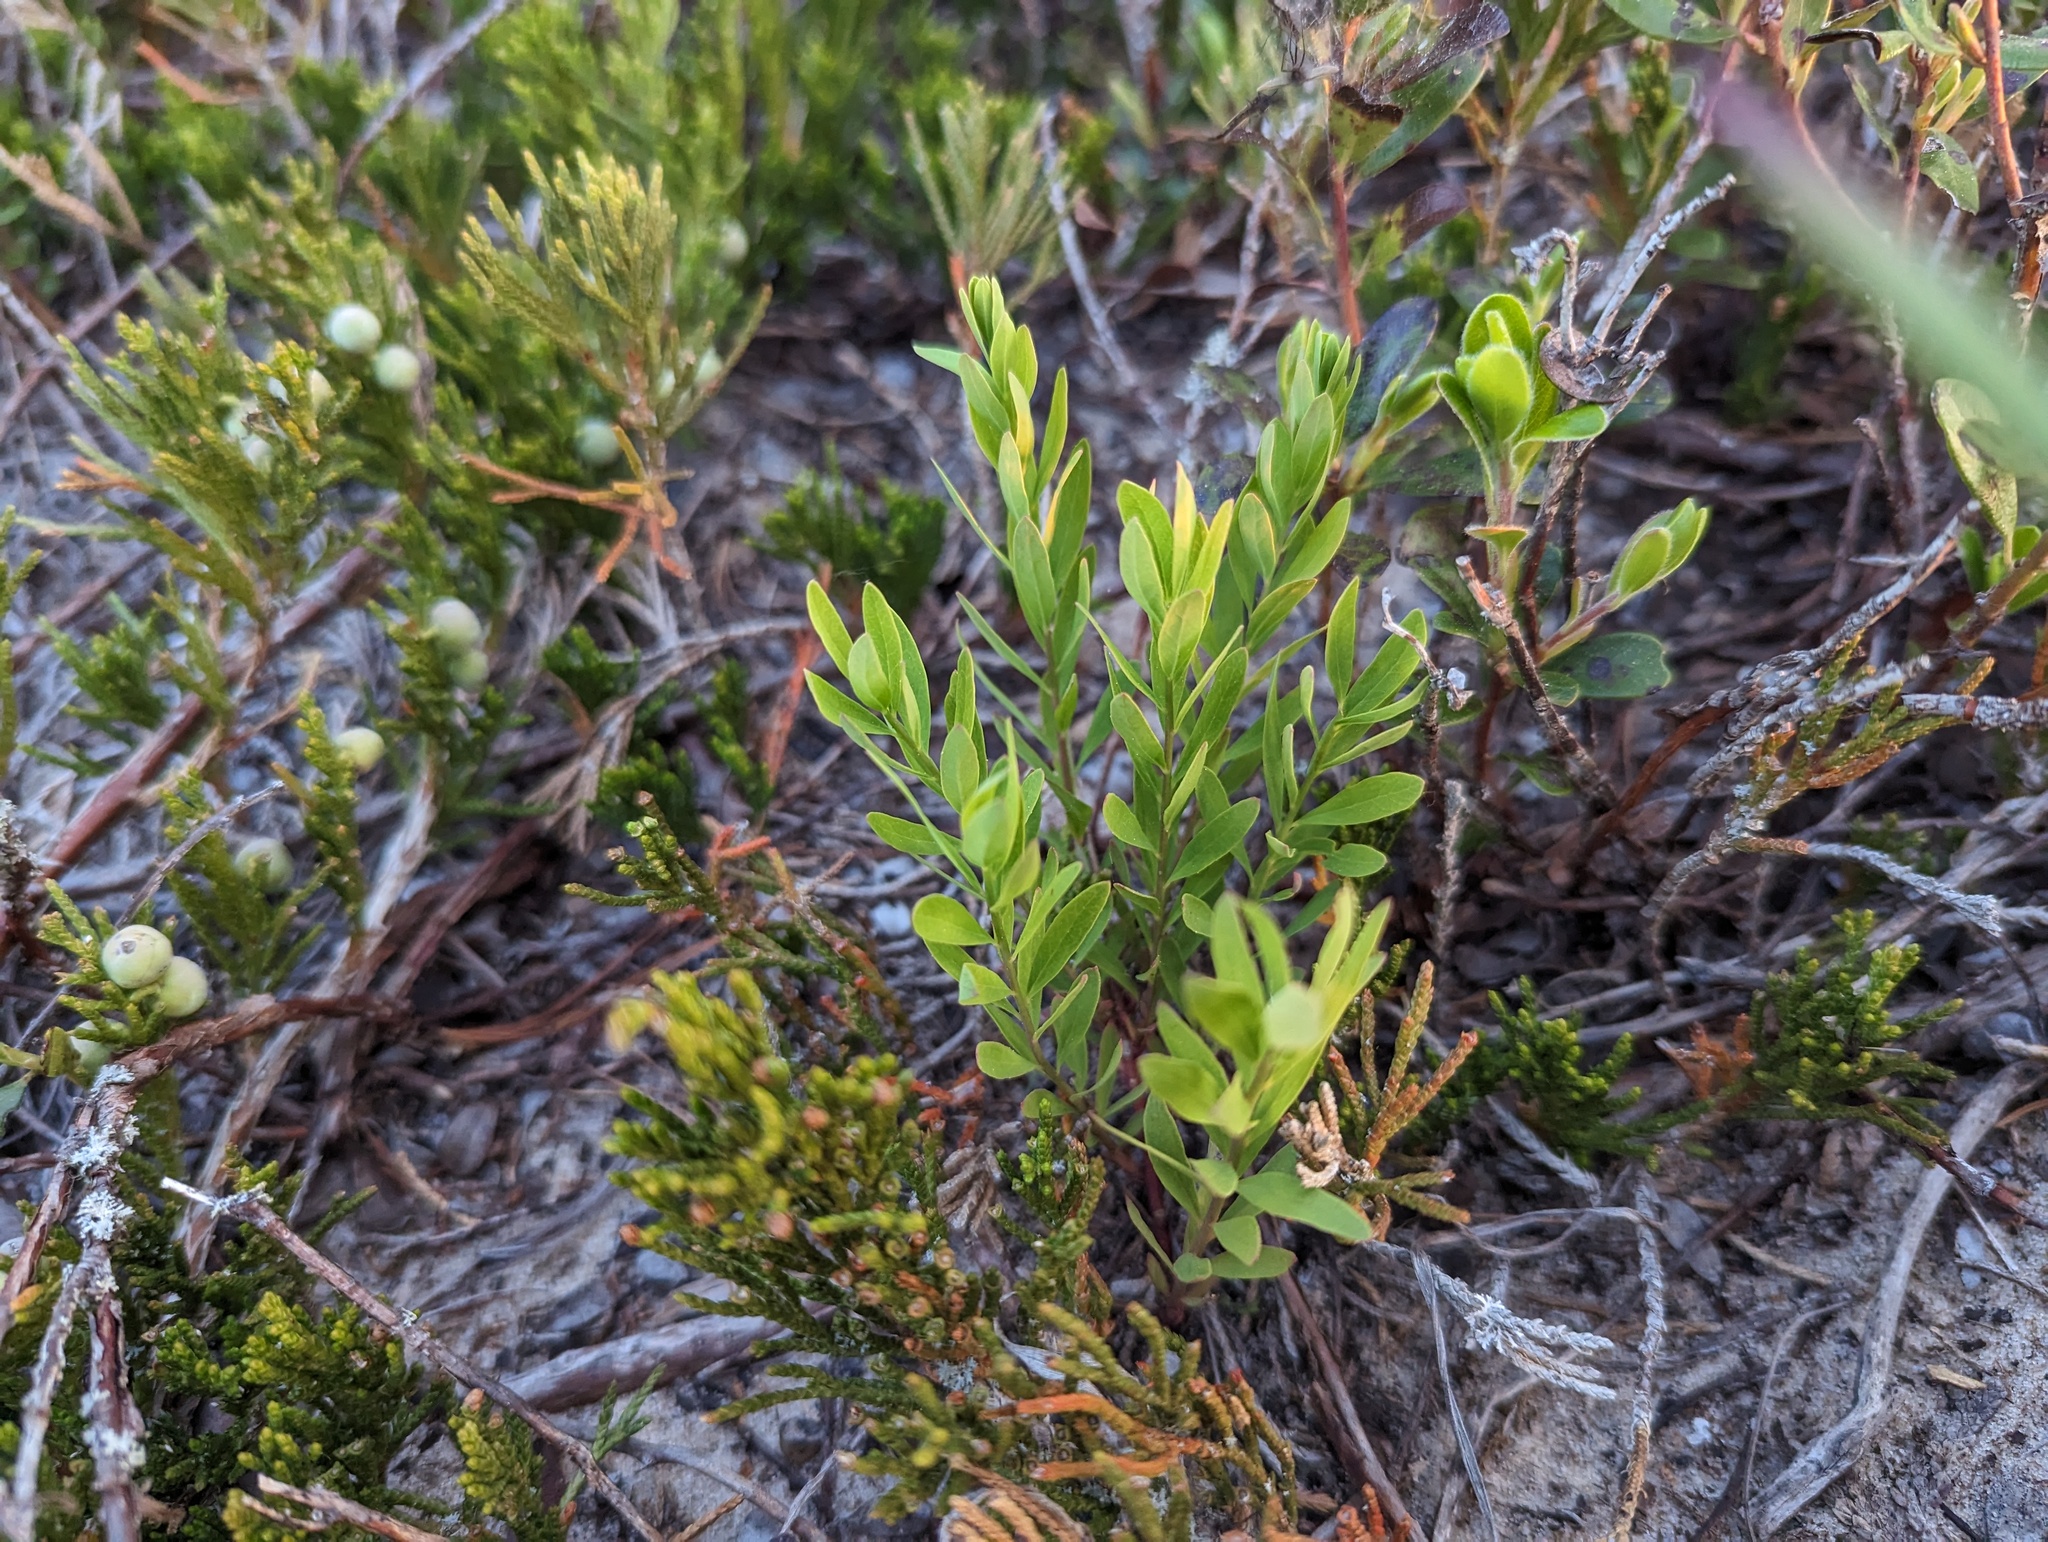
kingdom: Plantae
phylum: Tracheophyta
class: Magnoliopsida
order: Santalales
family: Comandraceae
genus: Comandra
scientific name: Comandra umbellata
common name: Bastard toadflax
